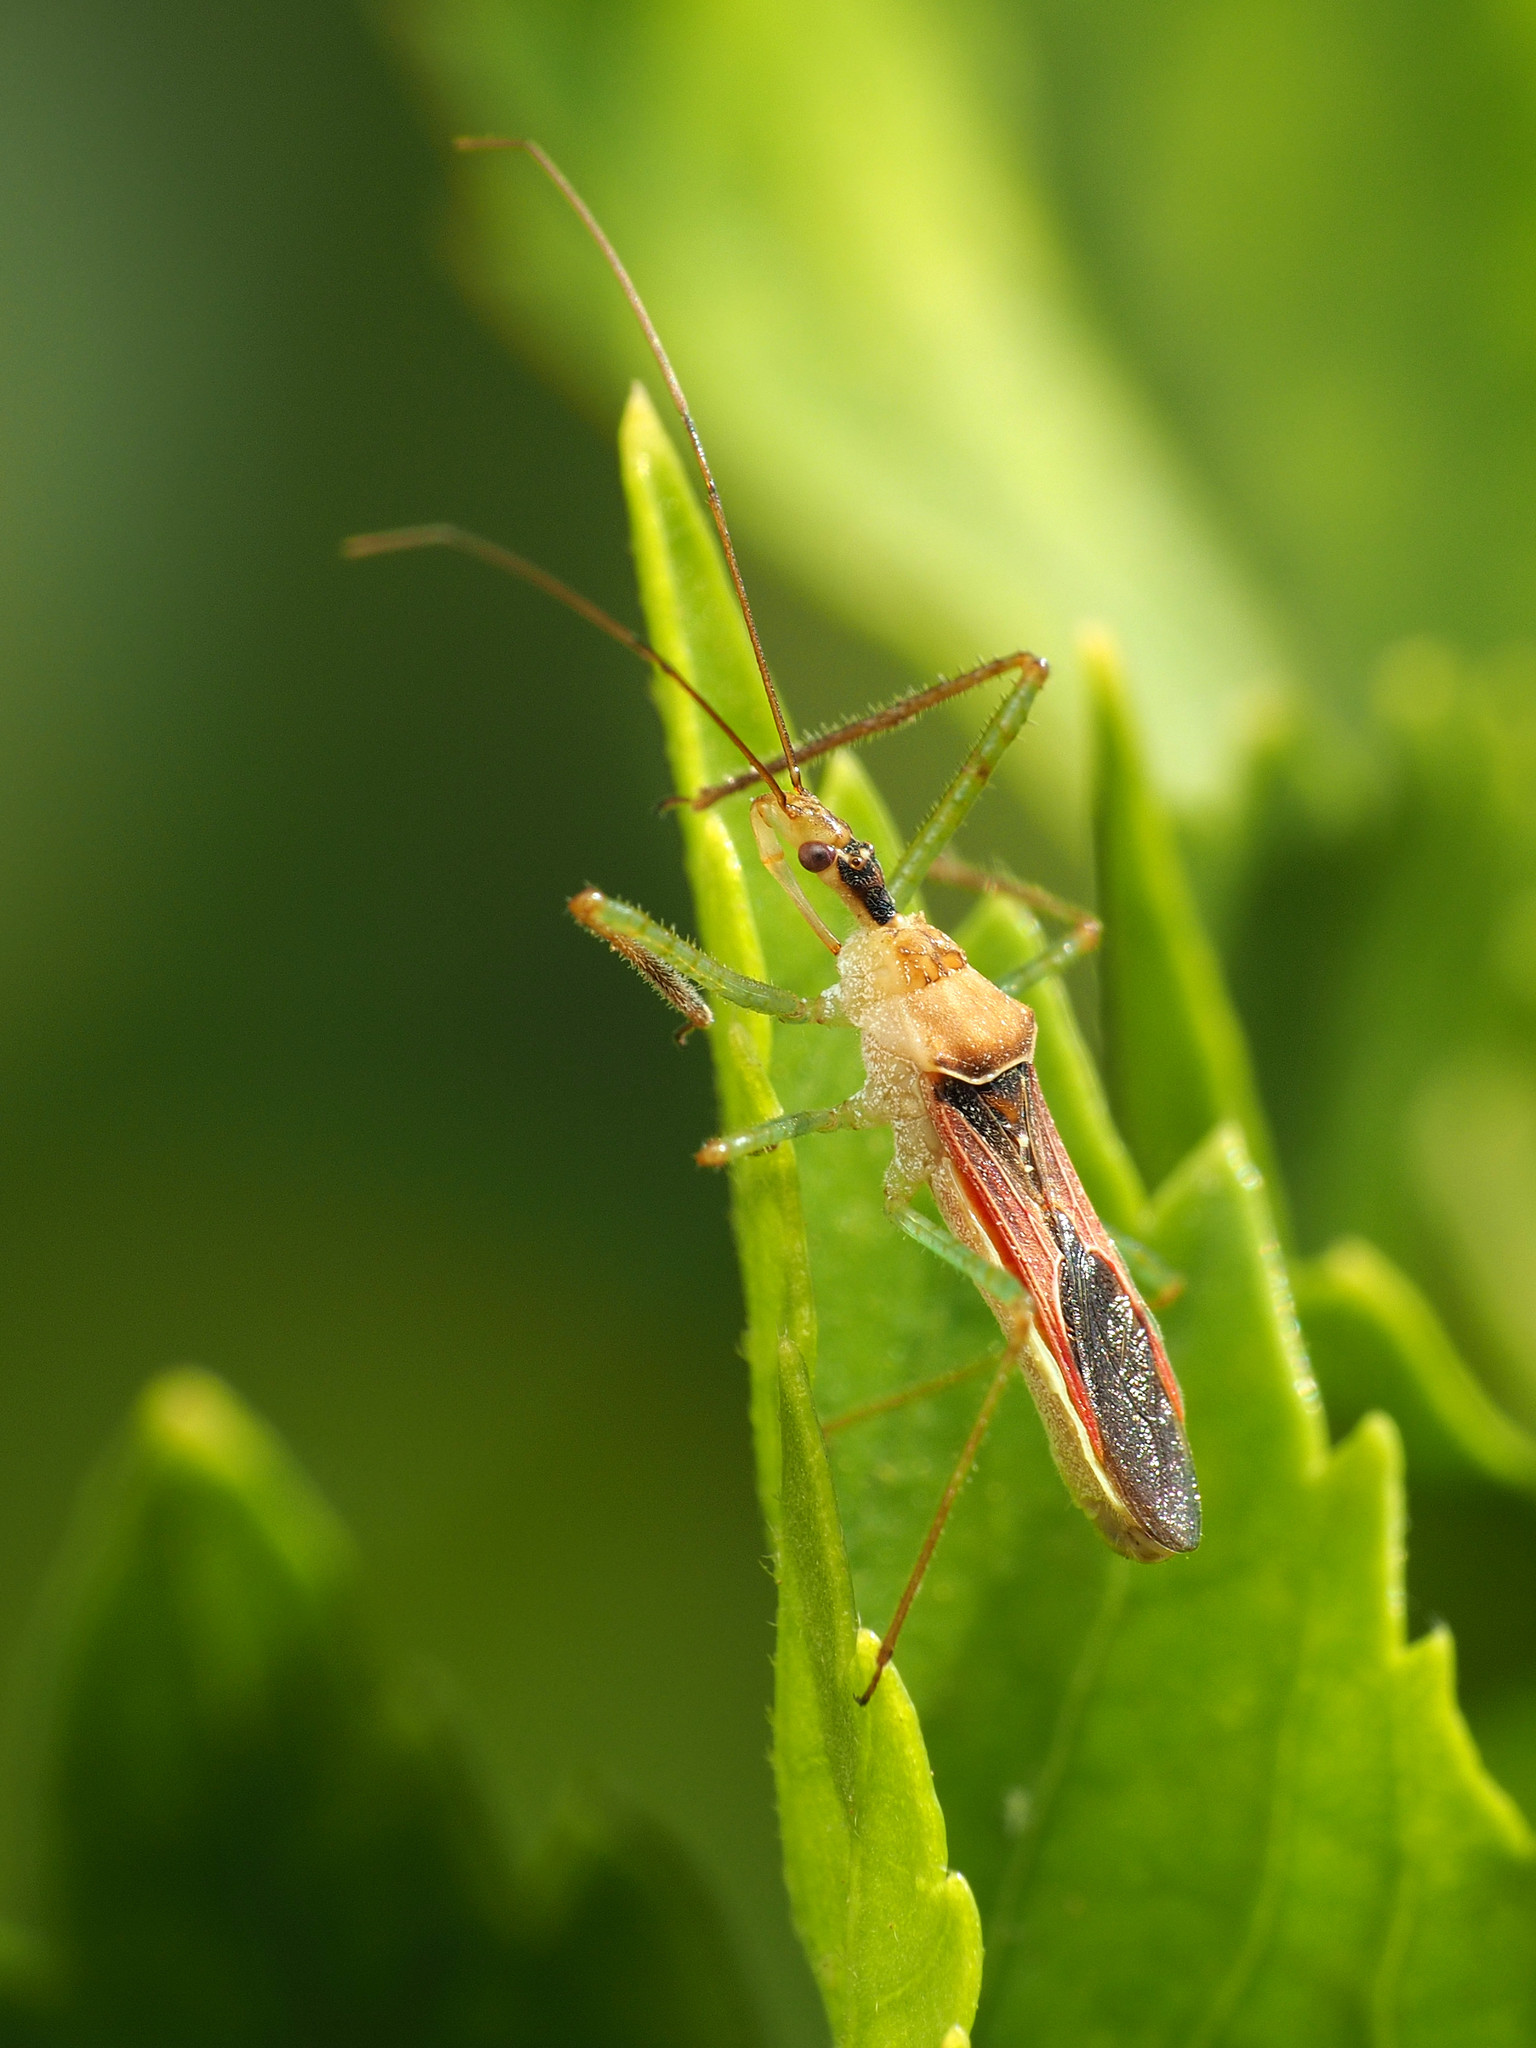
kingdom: Animalia
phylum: Arthropoda
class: Insecta
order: Hemiptera
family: Reduviidae
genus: Zelus
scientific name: Zelus renardii
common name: Assassin bug
